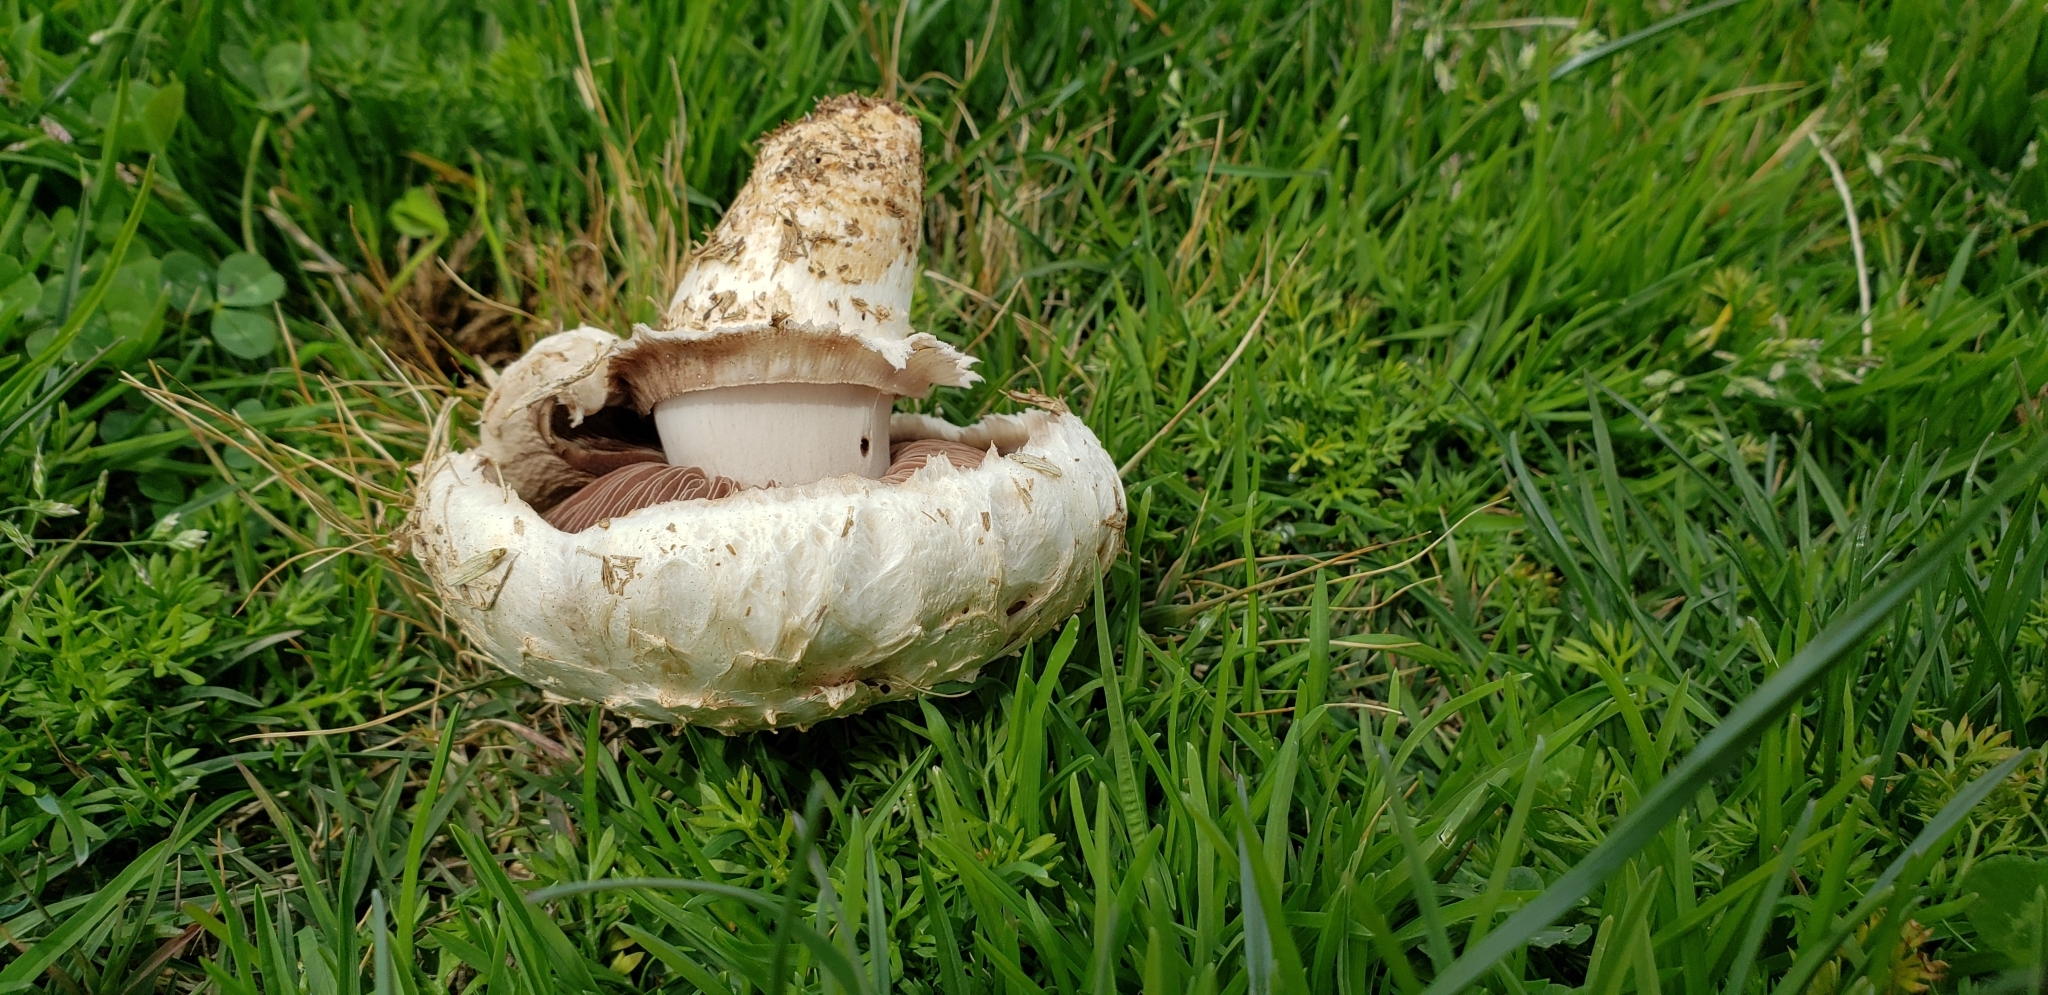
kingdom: Fungi
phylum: Basidiomycota
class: Agaricomycetes
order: Agaricales
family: Agaricaceae
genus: Agaricus
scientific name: Agaricus bernardii
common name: Salty mushroom
